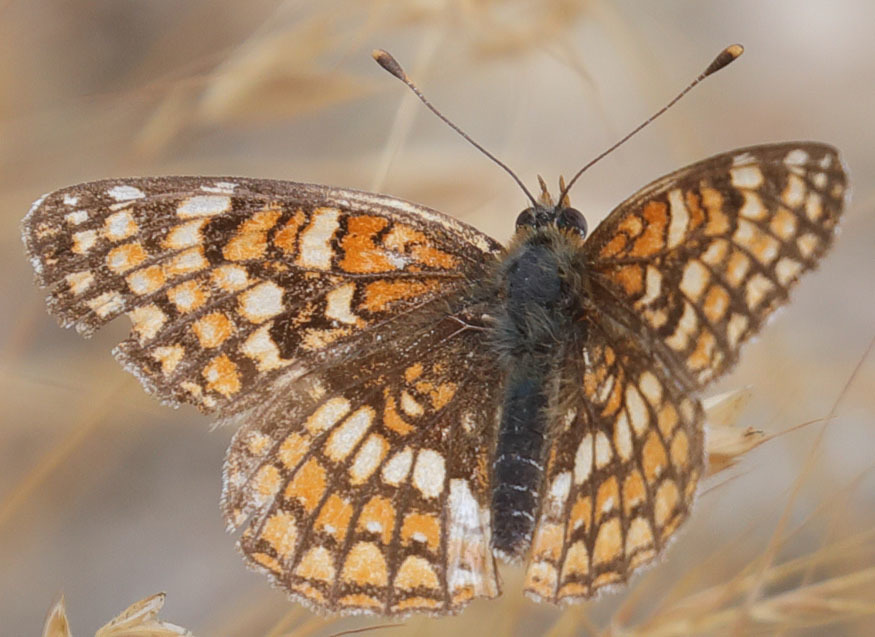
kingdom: Animalia
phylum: Arthropoda
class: Insecta
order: Lepidoptera
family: Nymphalidae
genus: Chlosyne
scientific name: Chlosyne gabbii
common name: Gabb's checkerspot
